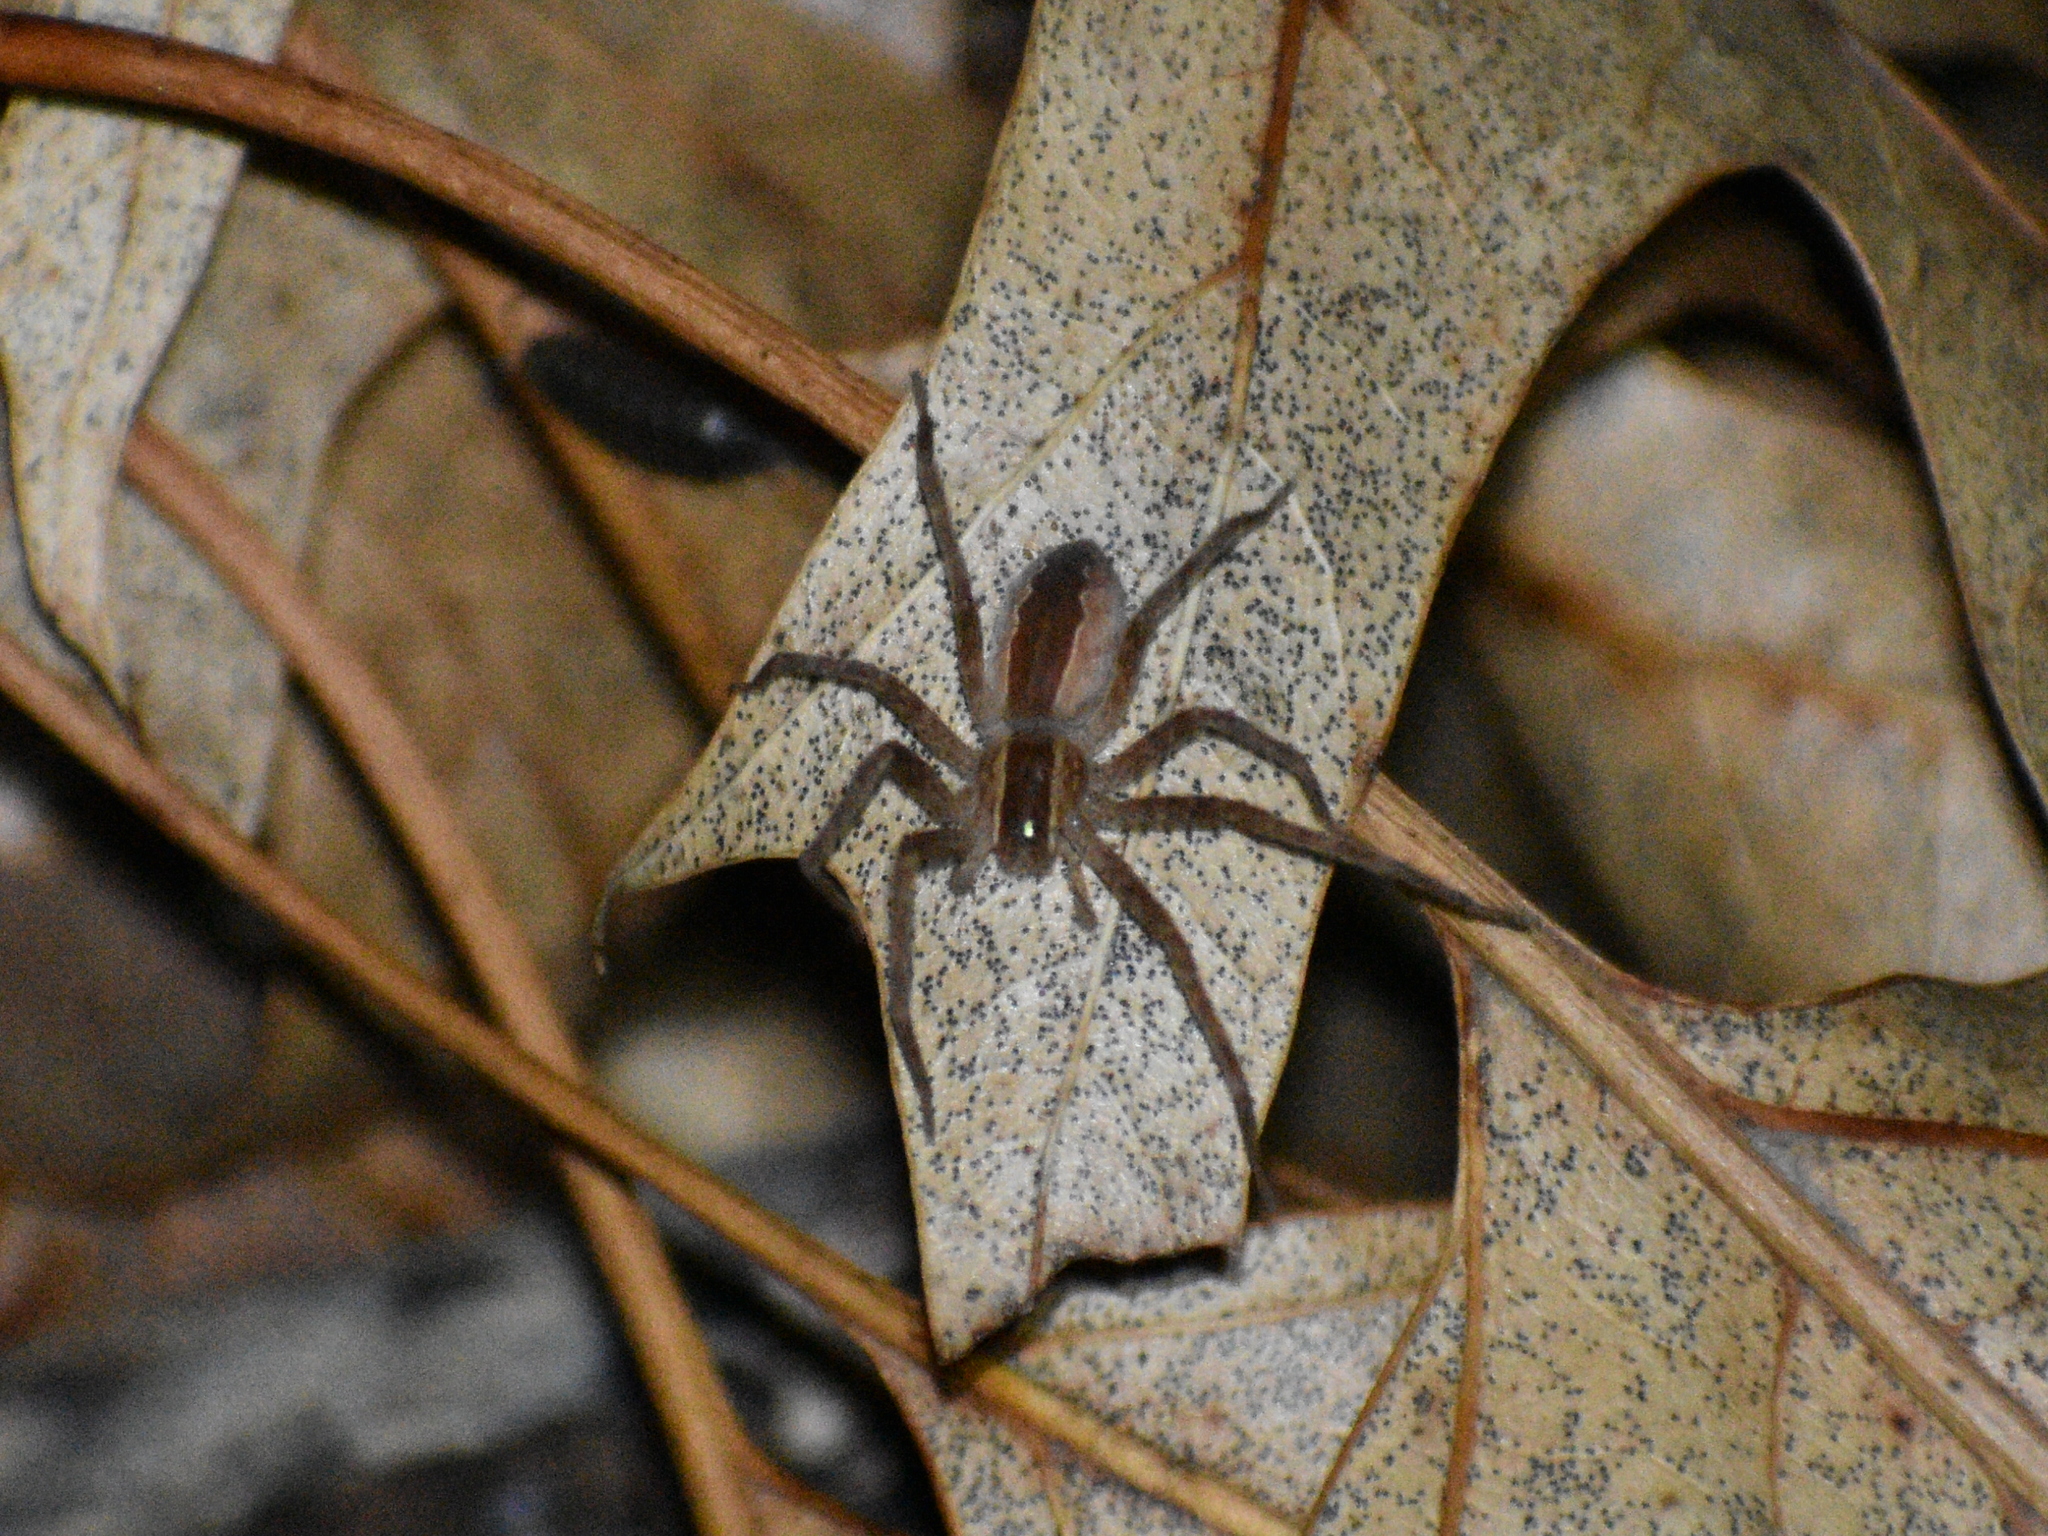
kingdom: Animalia
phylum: Arthropoda
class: Arachnida
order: Araneae
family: Pisauridae
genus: Pisaurina
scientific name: Pisaurina mira
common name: American nursery web spider
